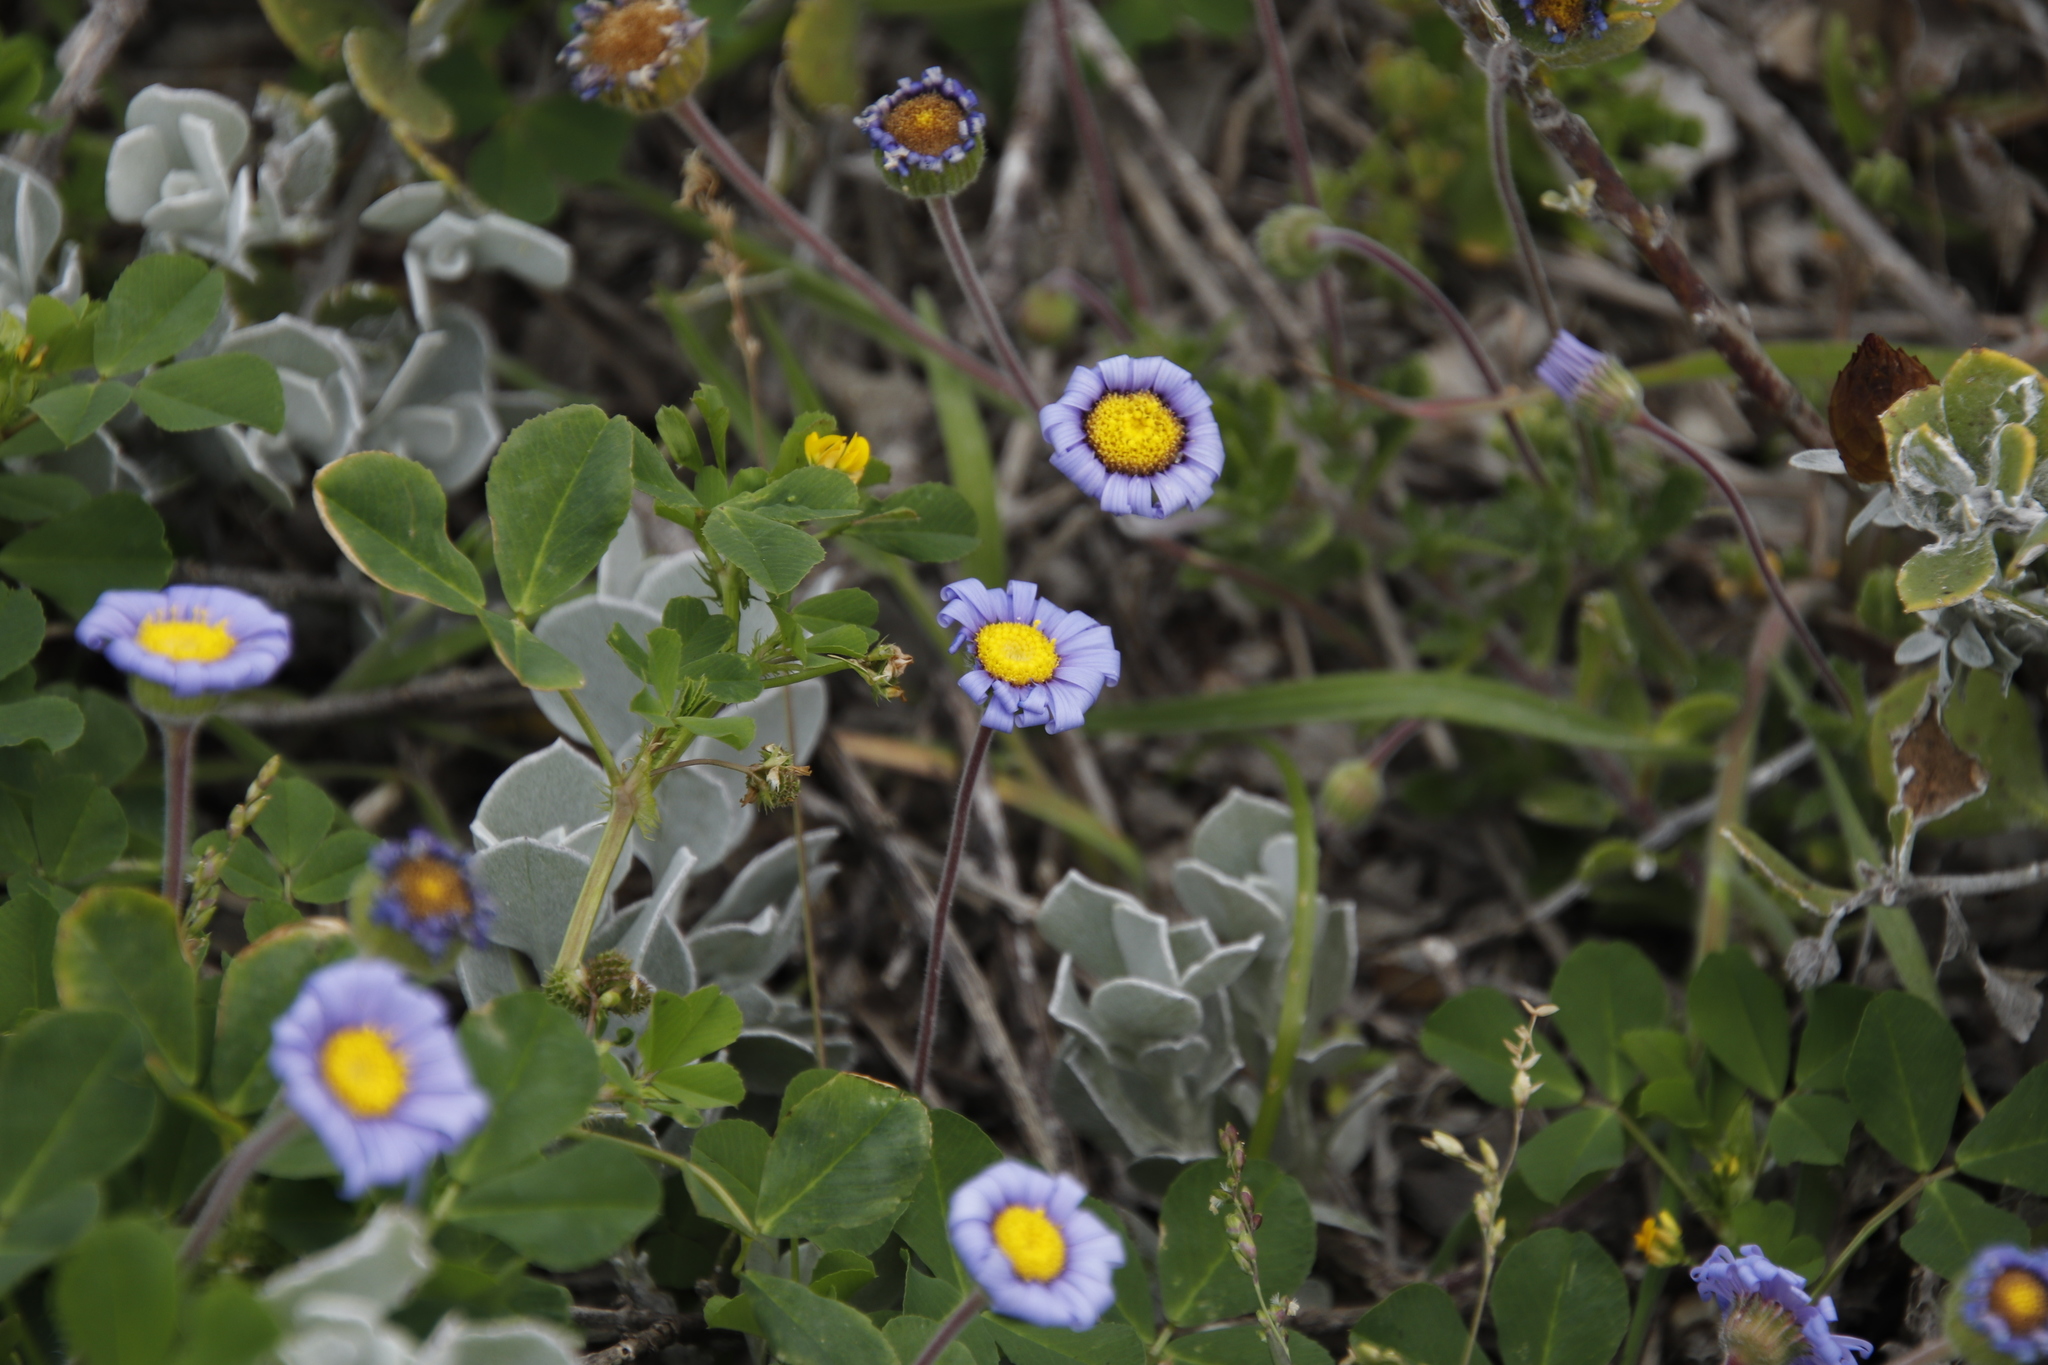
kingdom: Plantae
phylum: Tracheophyta
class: Magnoliopsida
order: Asterales
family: Asteraceae
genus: Felicia
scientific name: Felicia amoena
